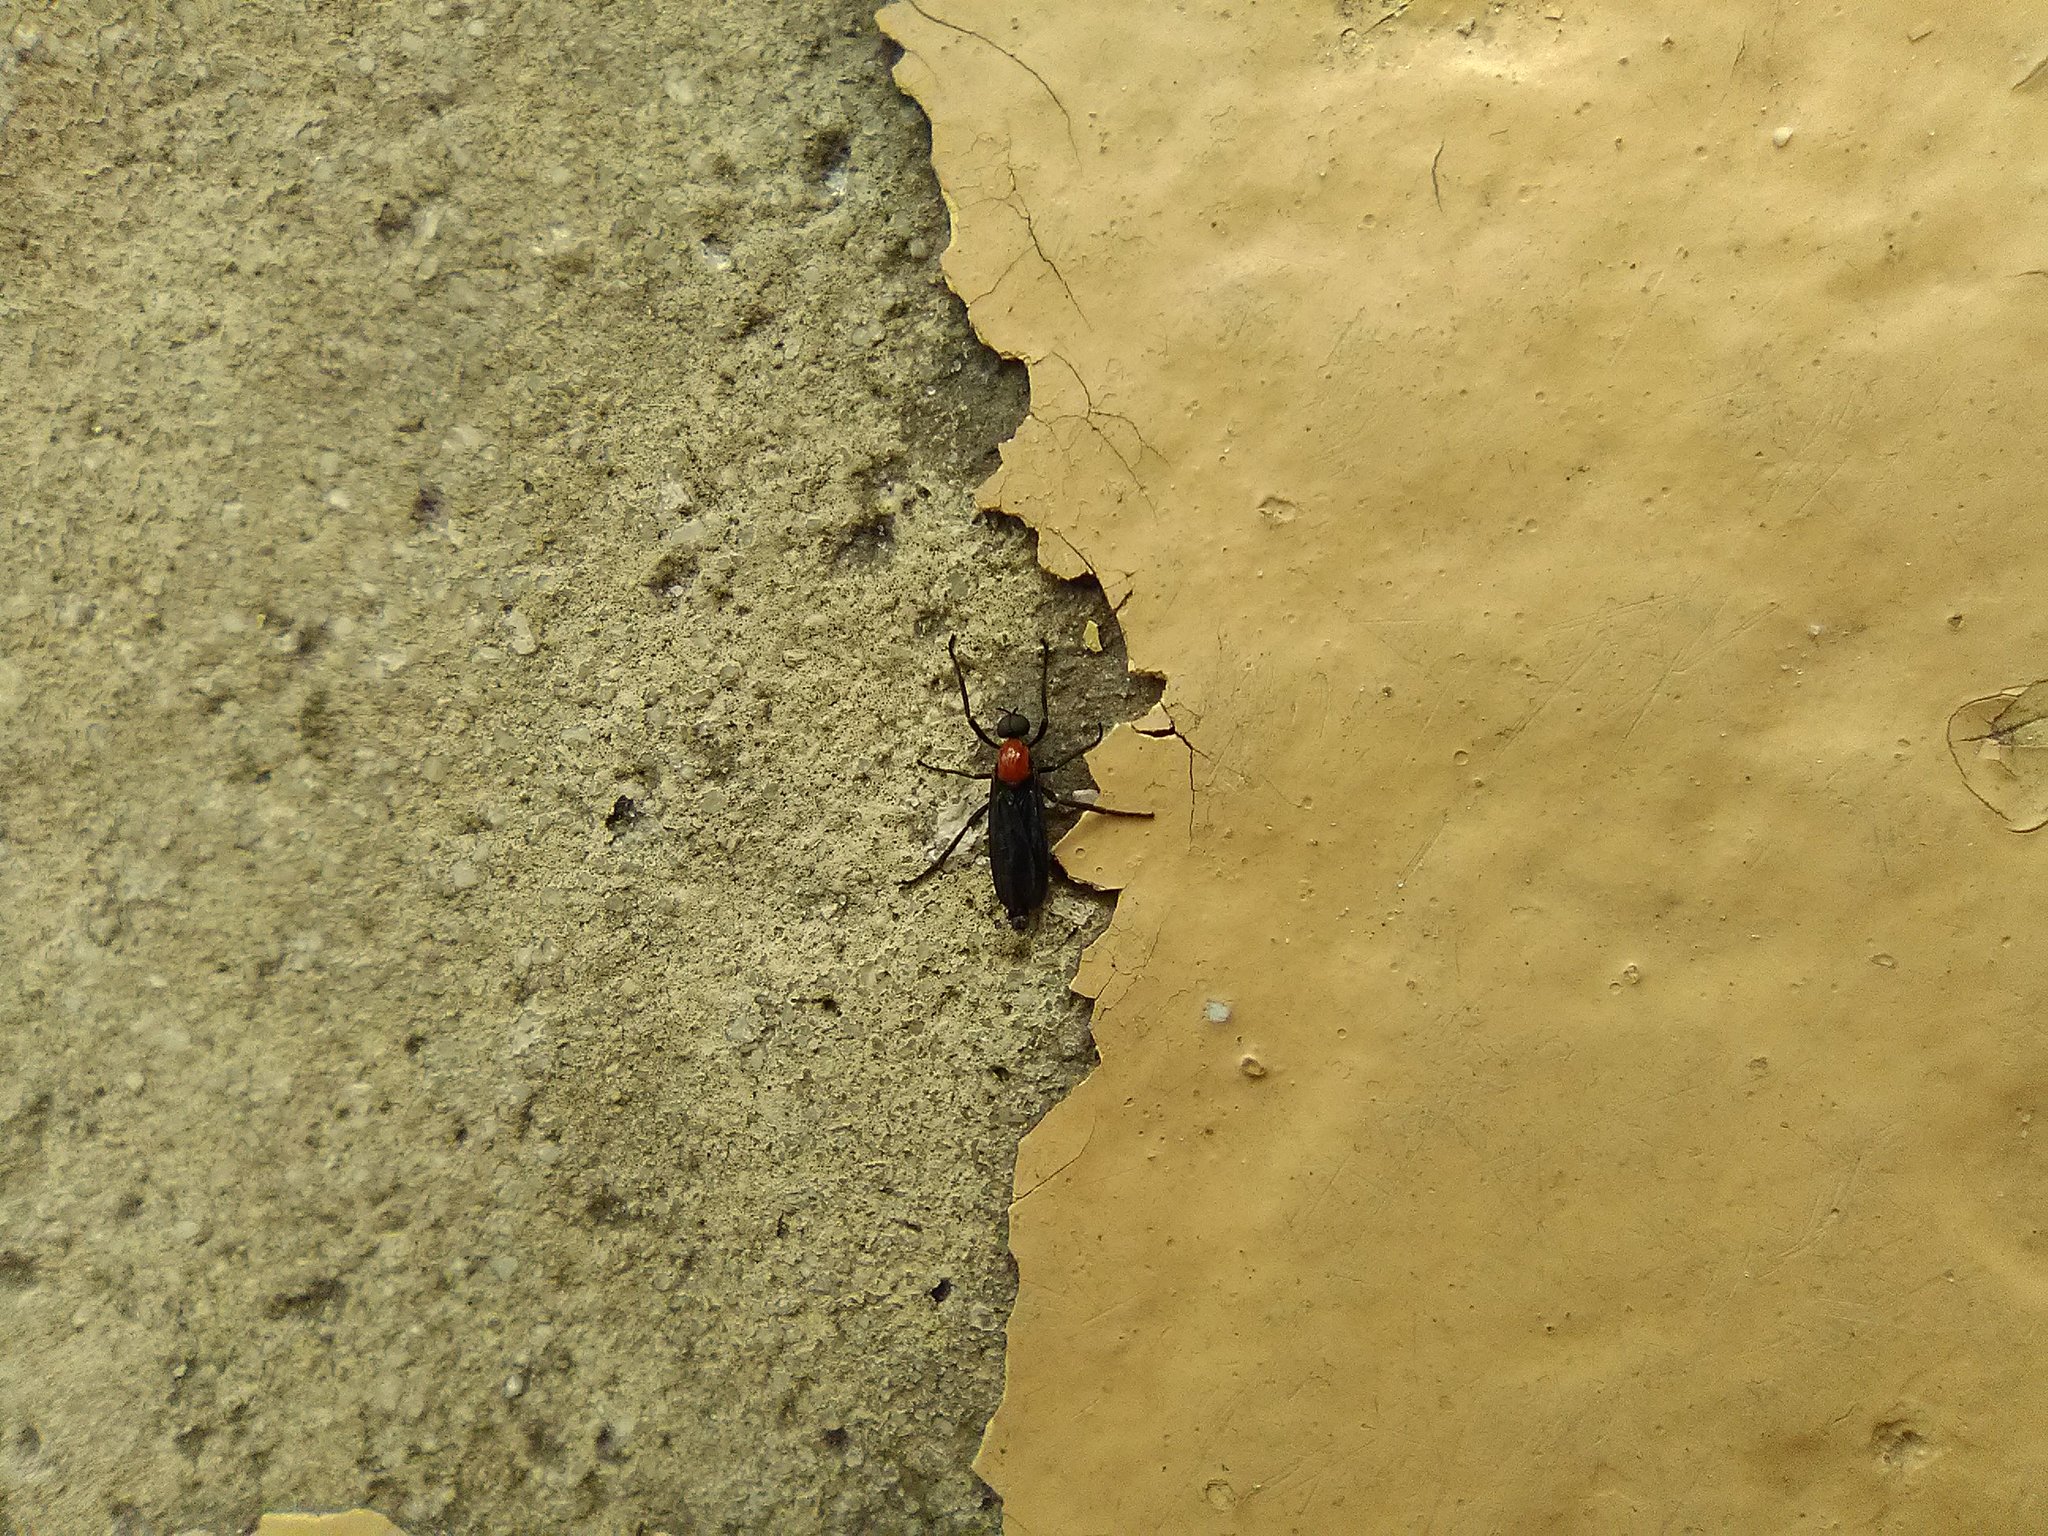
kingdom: Animalia
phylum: Arthropoda
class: Insecta
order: Diptera
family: Bibionidae
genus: Plecia
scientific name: Plecia nearctica
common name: March fly
